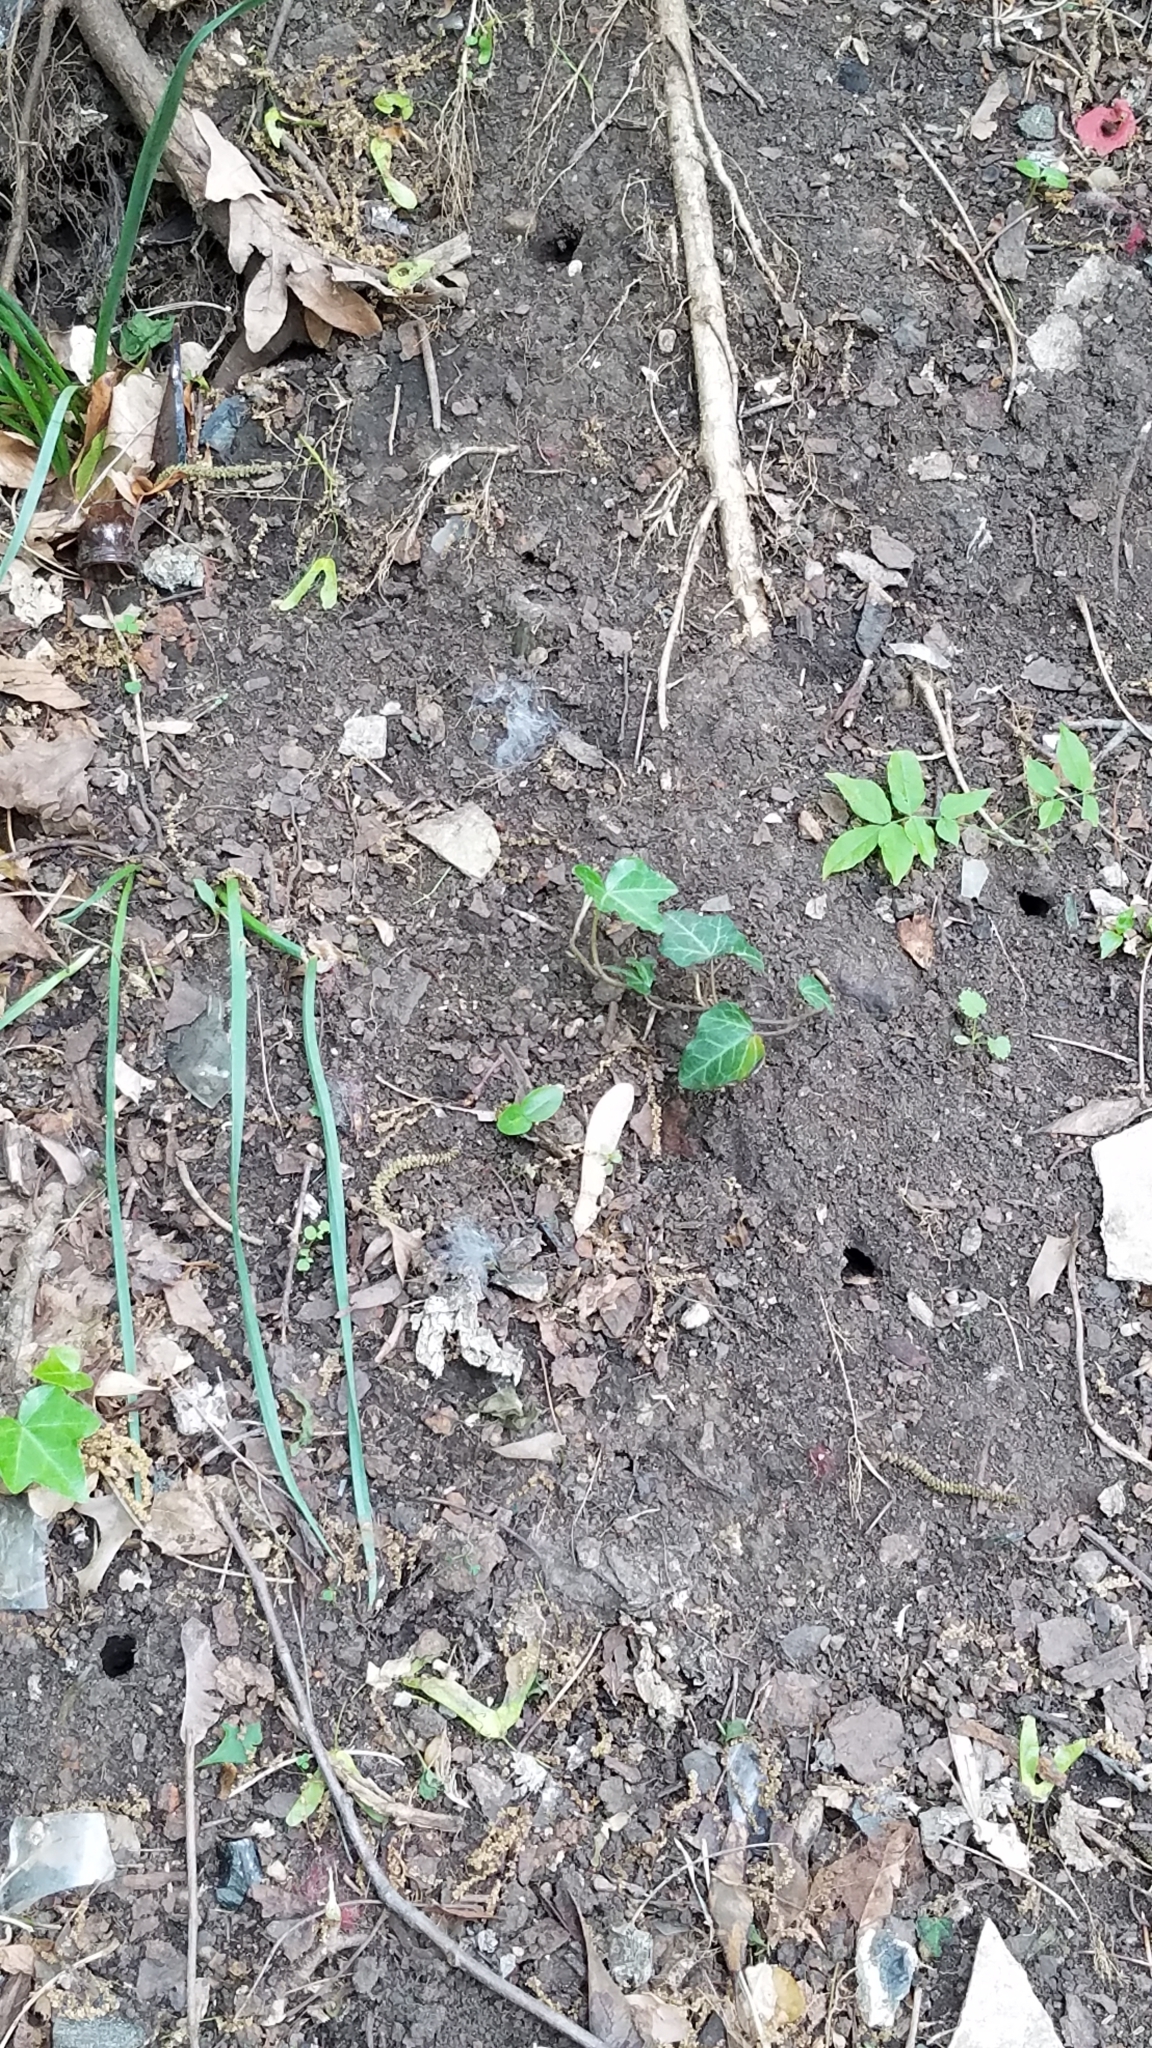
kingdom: Animalia
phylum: Arthropoda
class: Insecta
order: Hemiptera
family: Cicadidae
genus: Magicicada
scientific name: Magicicada
